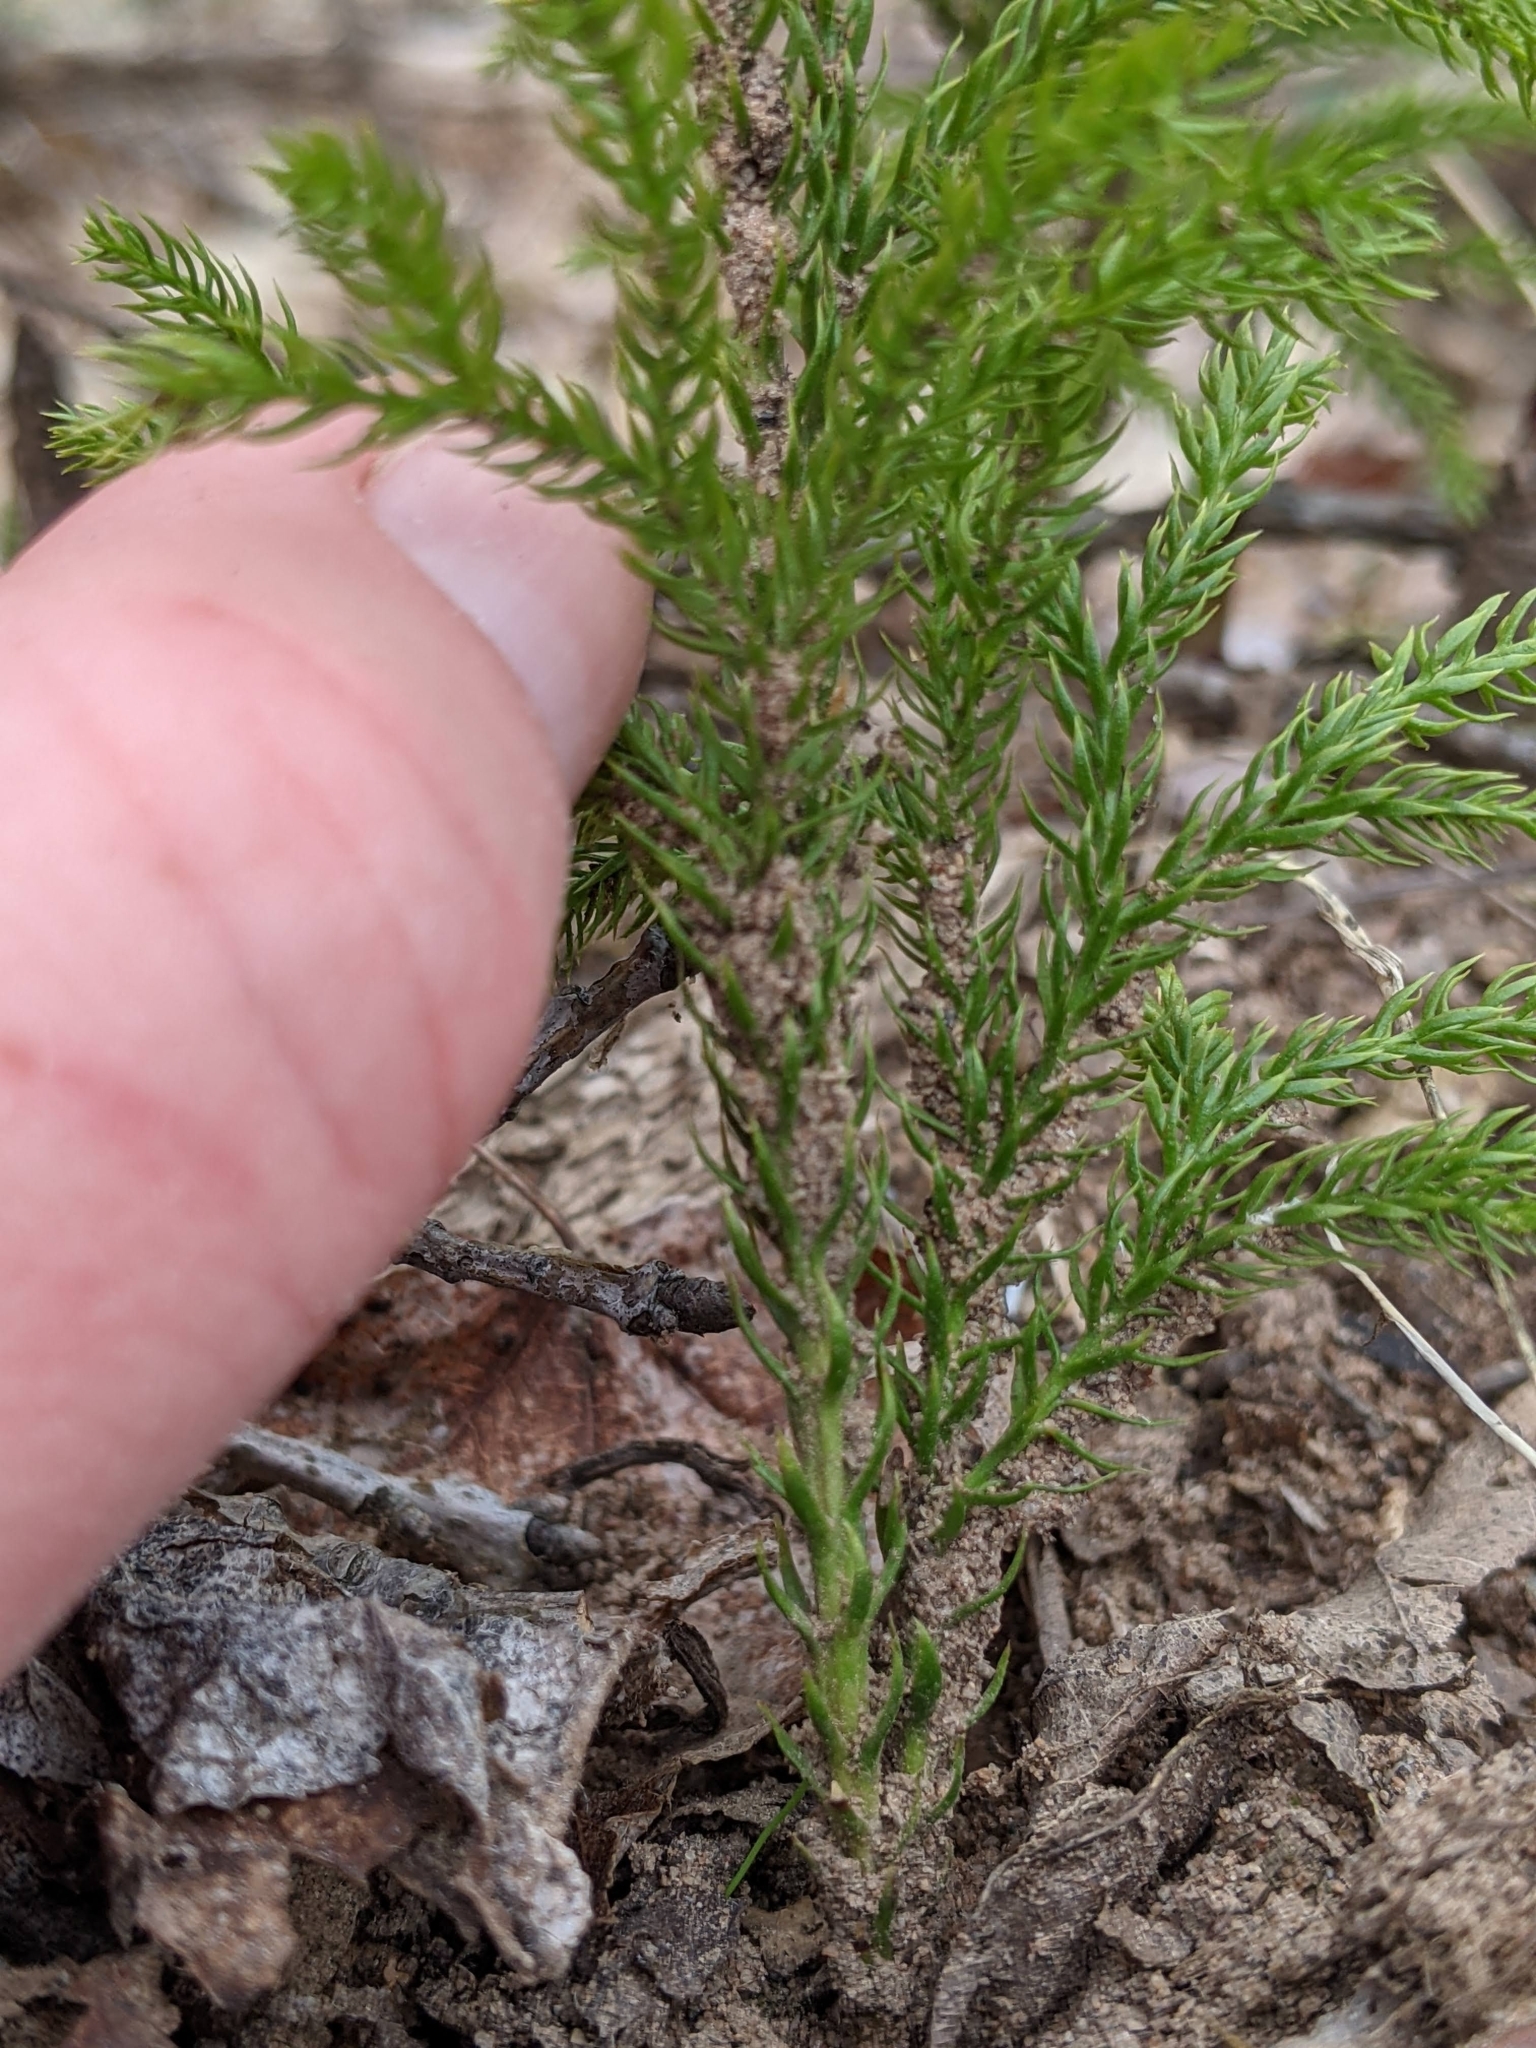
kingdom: Plantae
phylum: Tracheophyta
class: Lycopodiopsida
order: Lycopodiales
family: Lycopodiaceae
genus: Dendrolycopodium
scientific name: Dendrolycopodium dendroideum
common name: Northern tree-clubmoss
